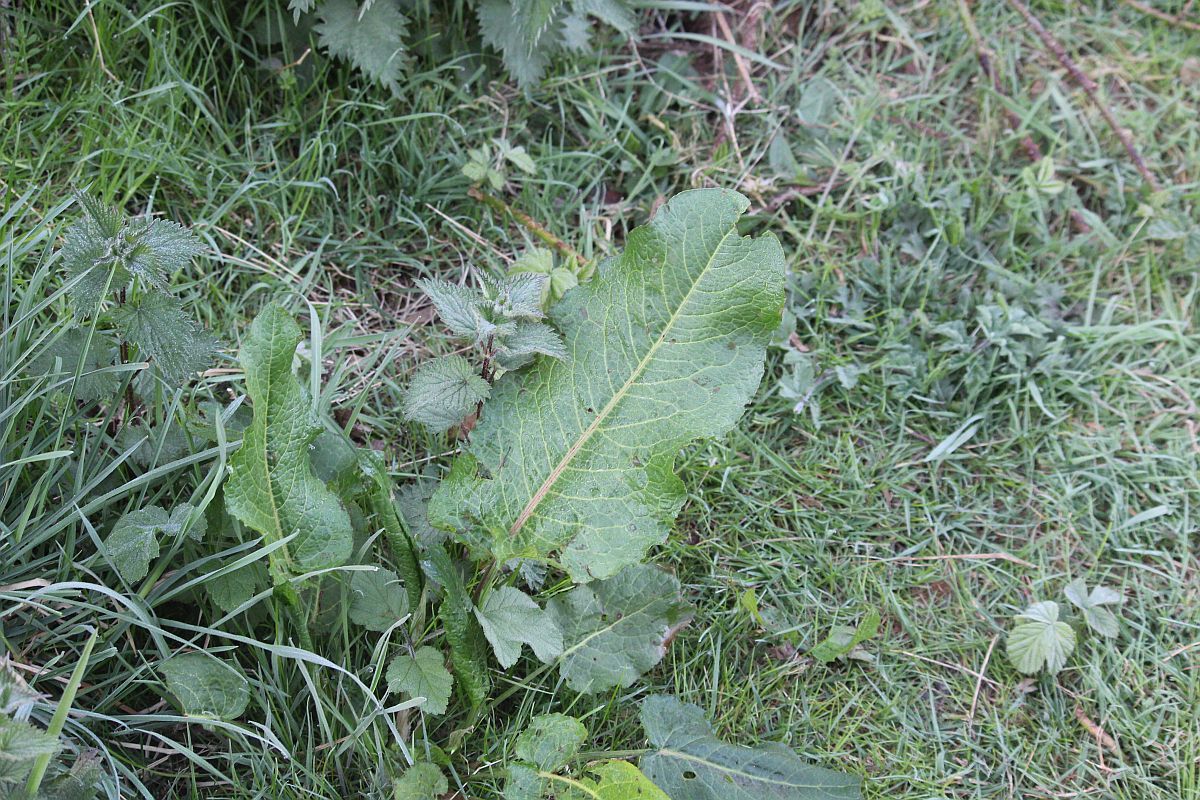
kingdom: Plantae
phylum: Tracheophyta
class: Magnoliopsida
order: Caryophyllales
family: Polygonaceae
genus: Rumex
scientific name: Rumex obtusifolius
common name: Bitter dock
